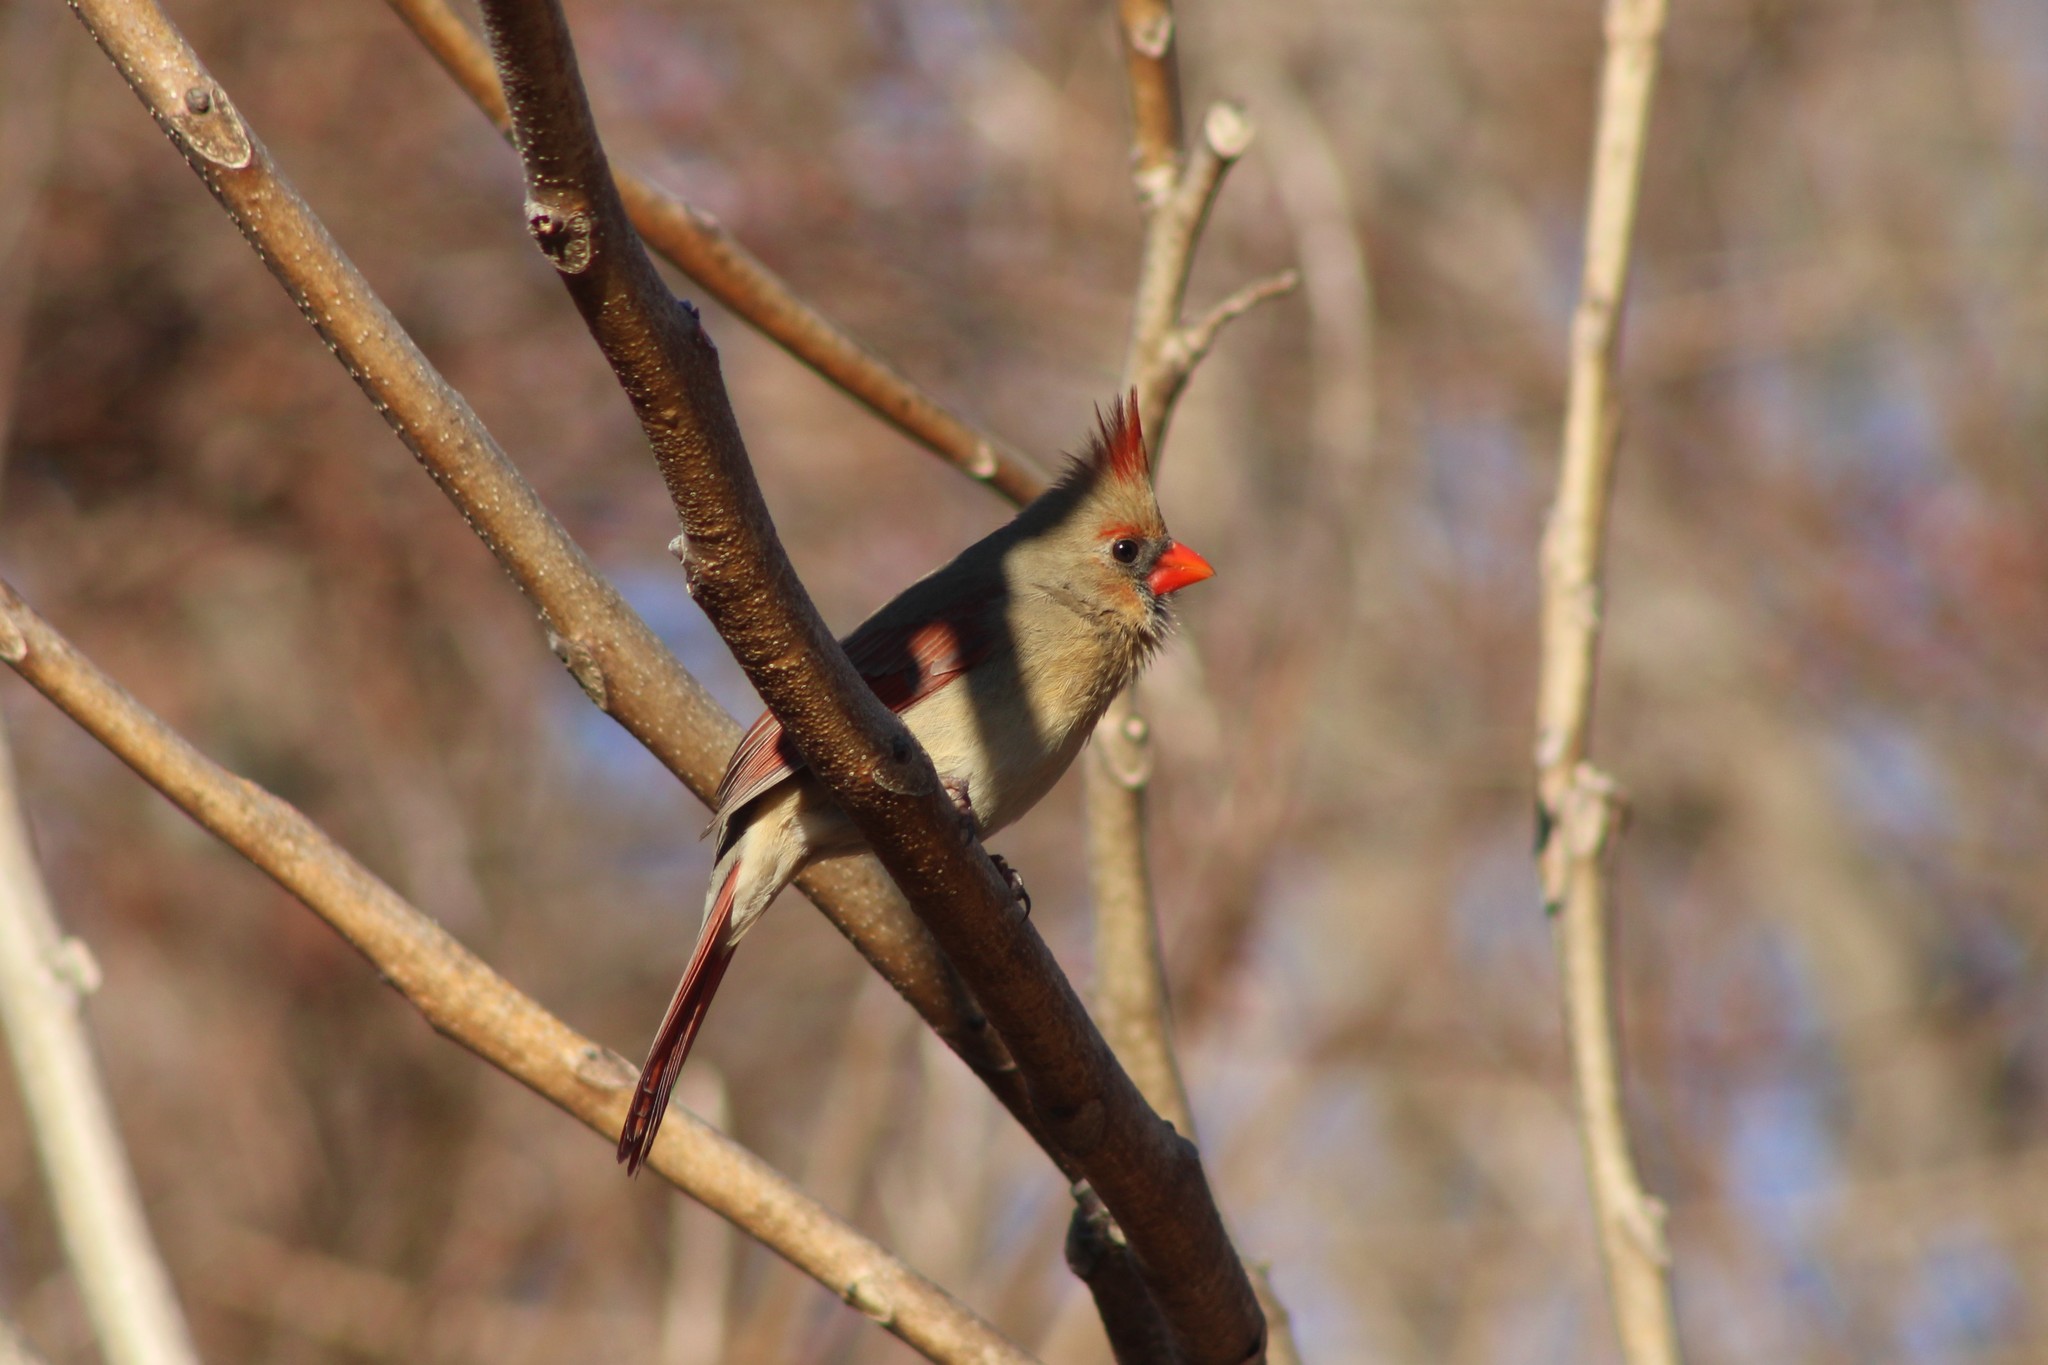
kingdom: Animalia
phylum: Chordata
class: Aves
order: Passeriformes
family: Cardinalidae
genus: Cardinalis
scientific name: Cardinalis cardinalis
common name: Northern cardinal
